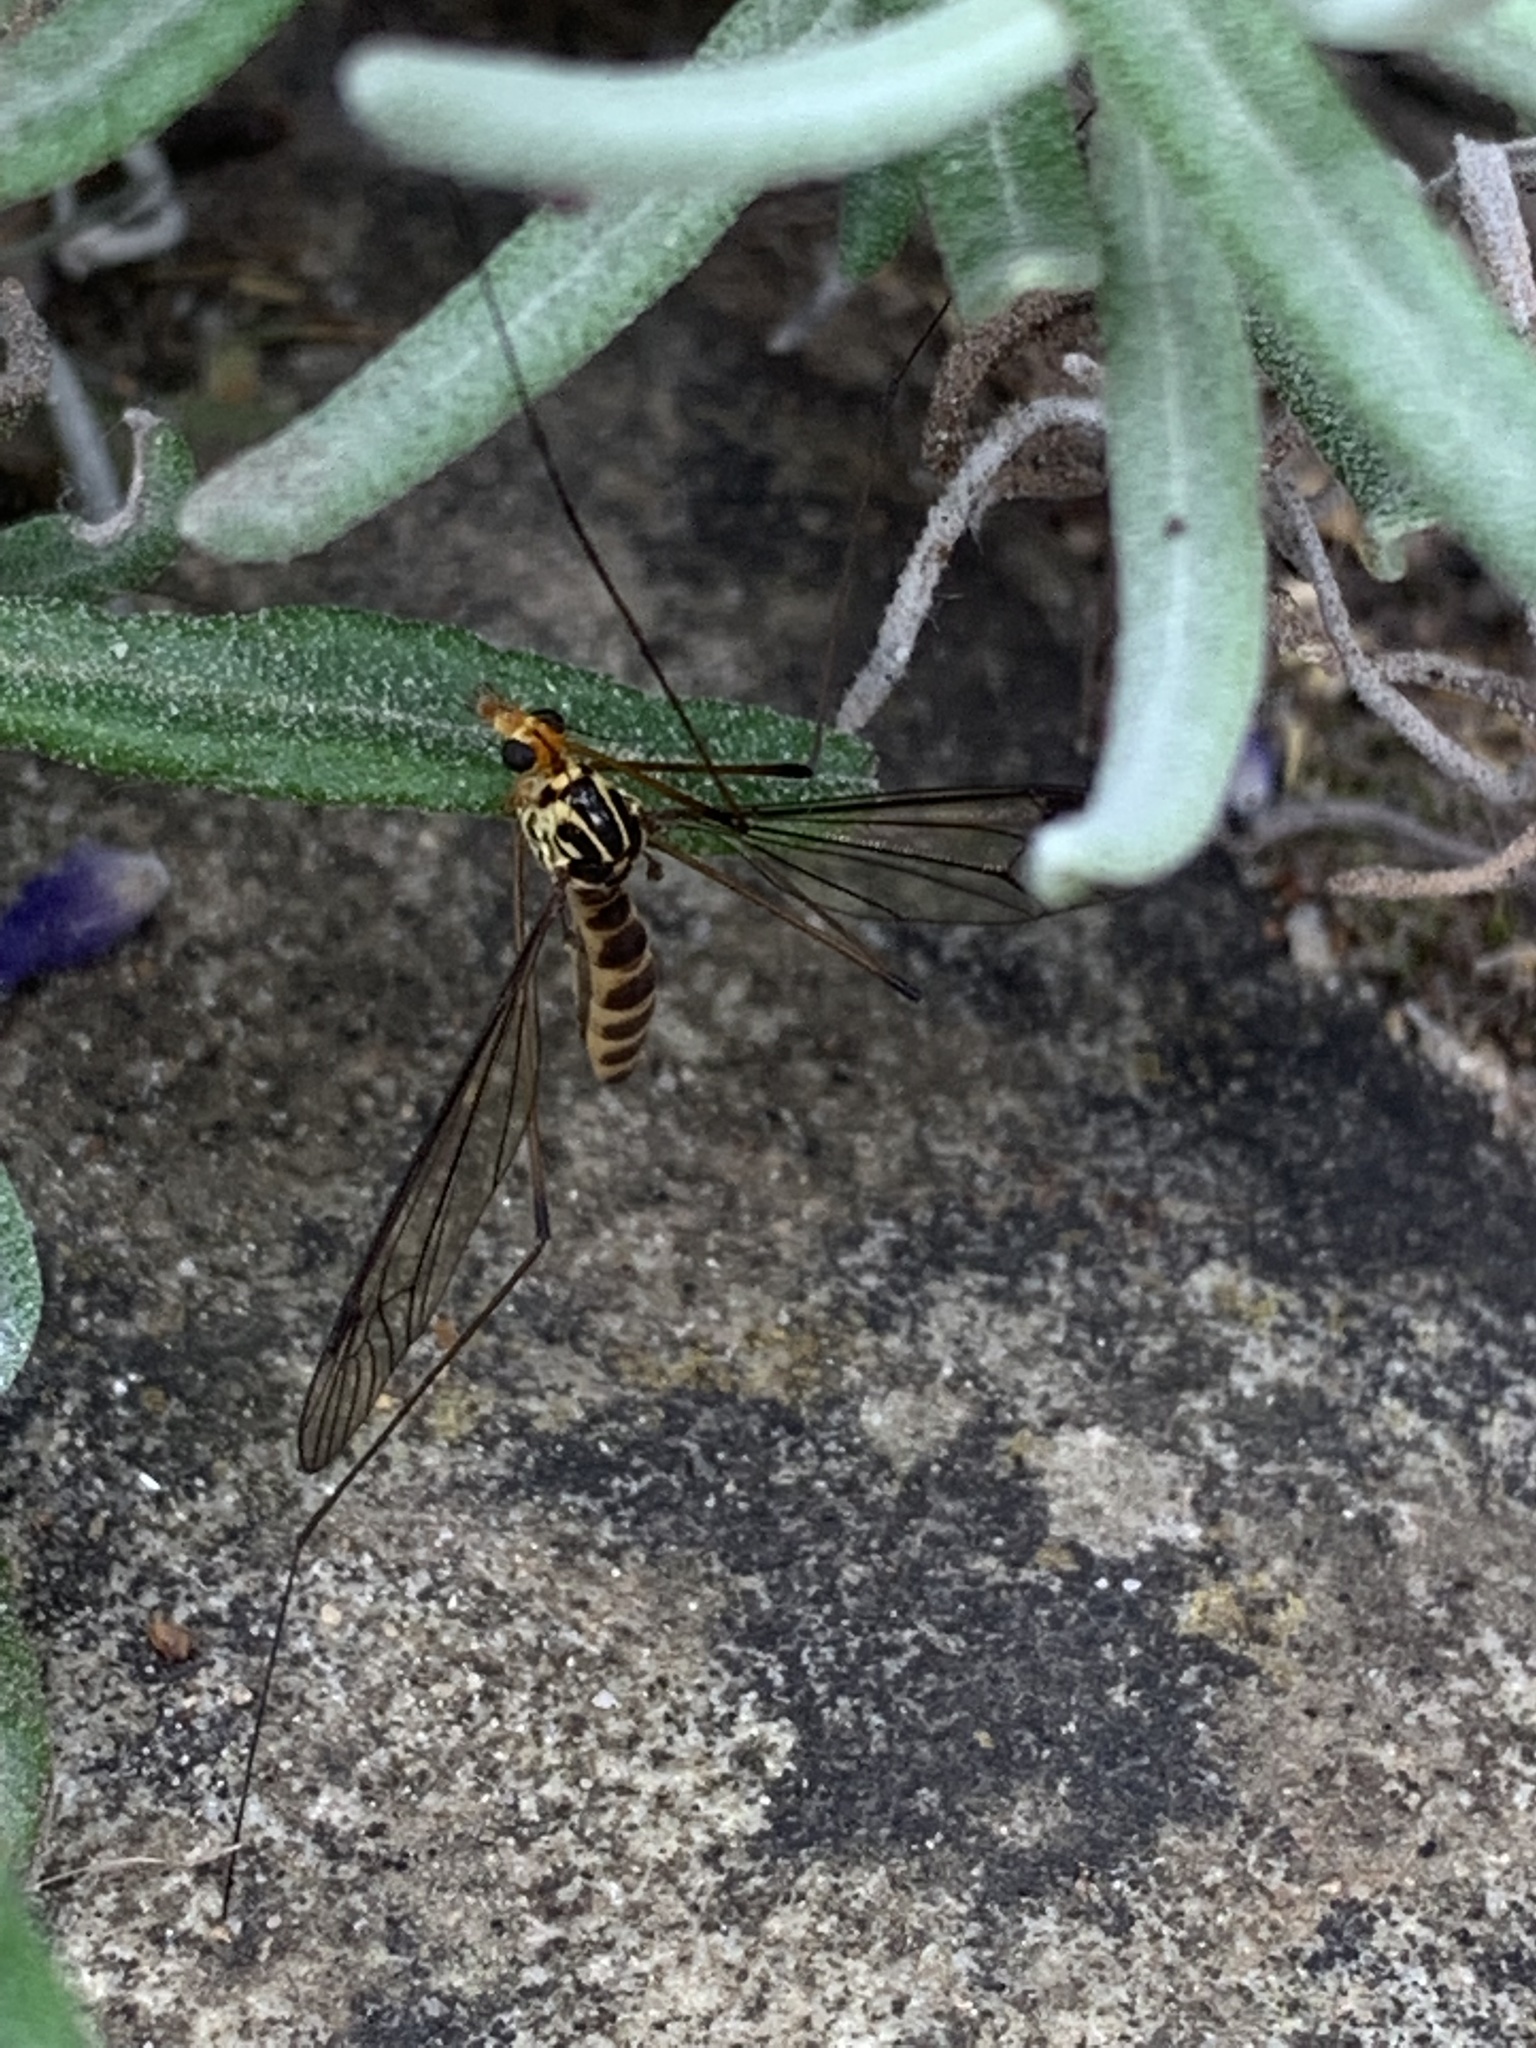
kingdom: Animalia
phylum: Arthropoda
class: Insecta
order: Diptera
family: Tipulidae
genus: Nephrotoma
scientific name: Nephrotoma flavipalpis
